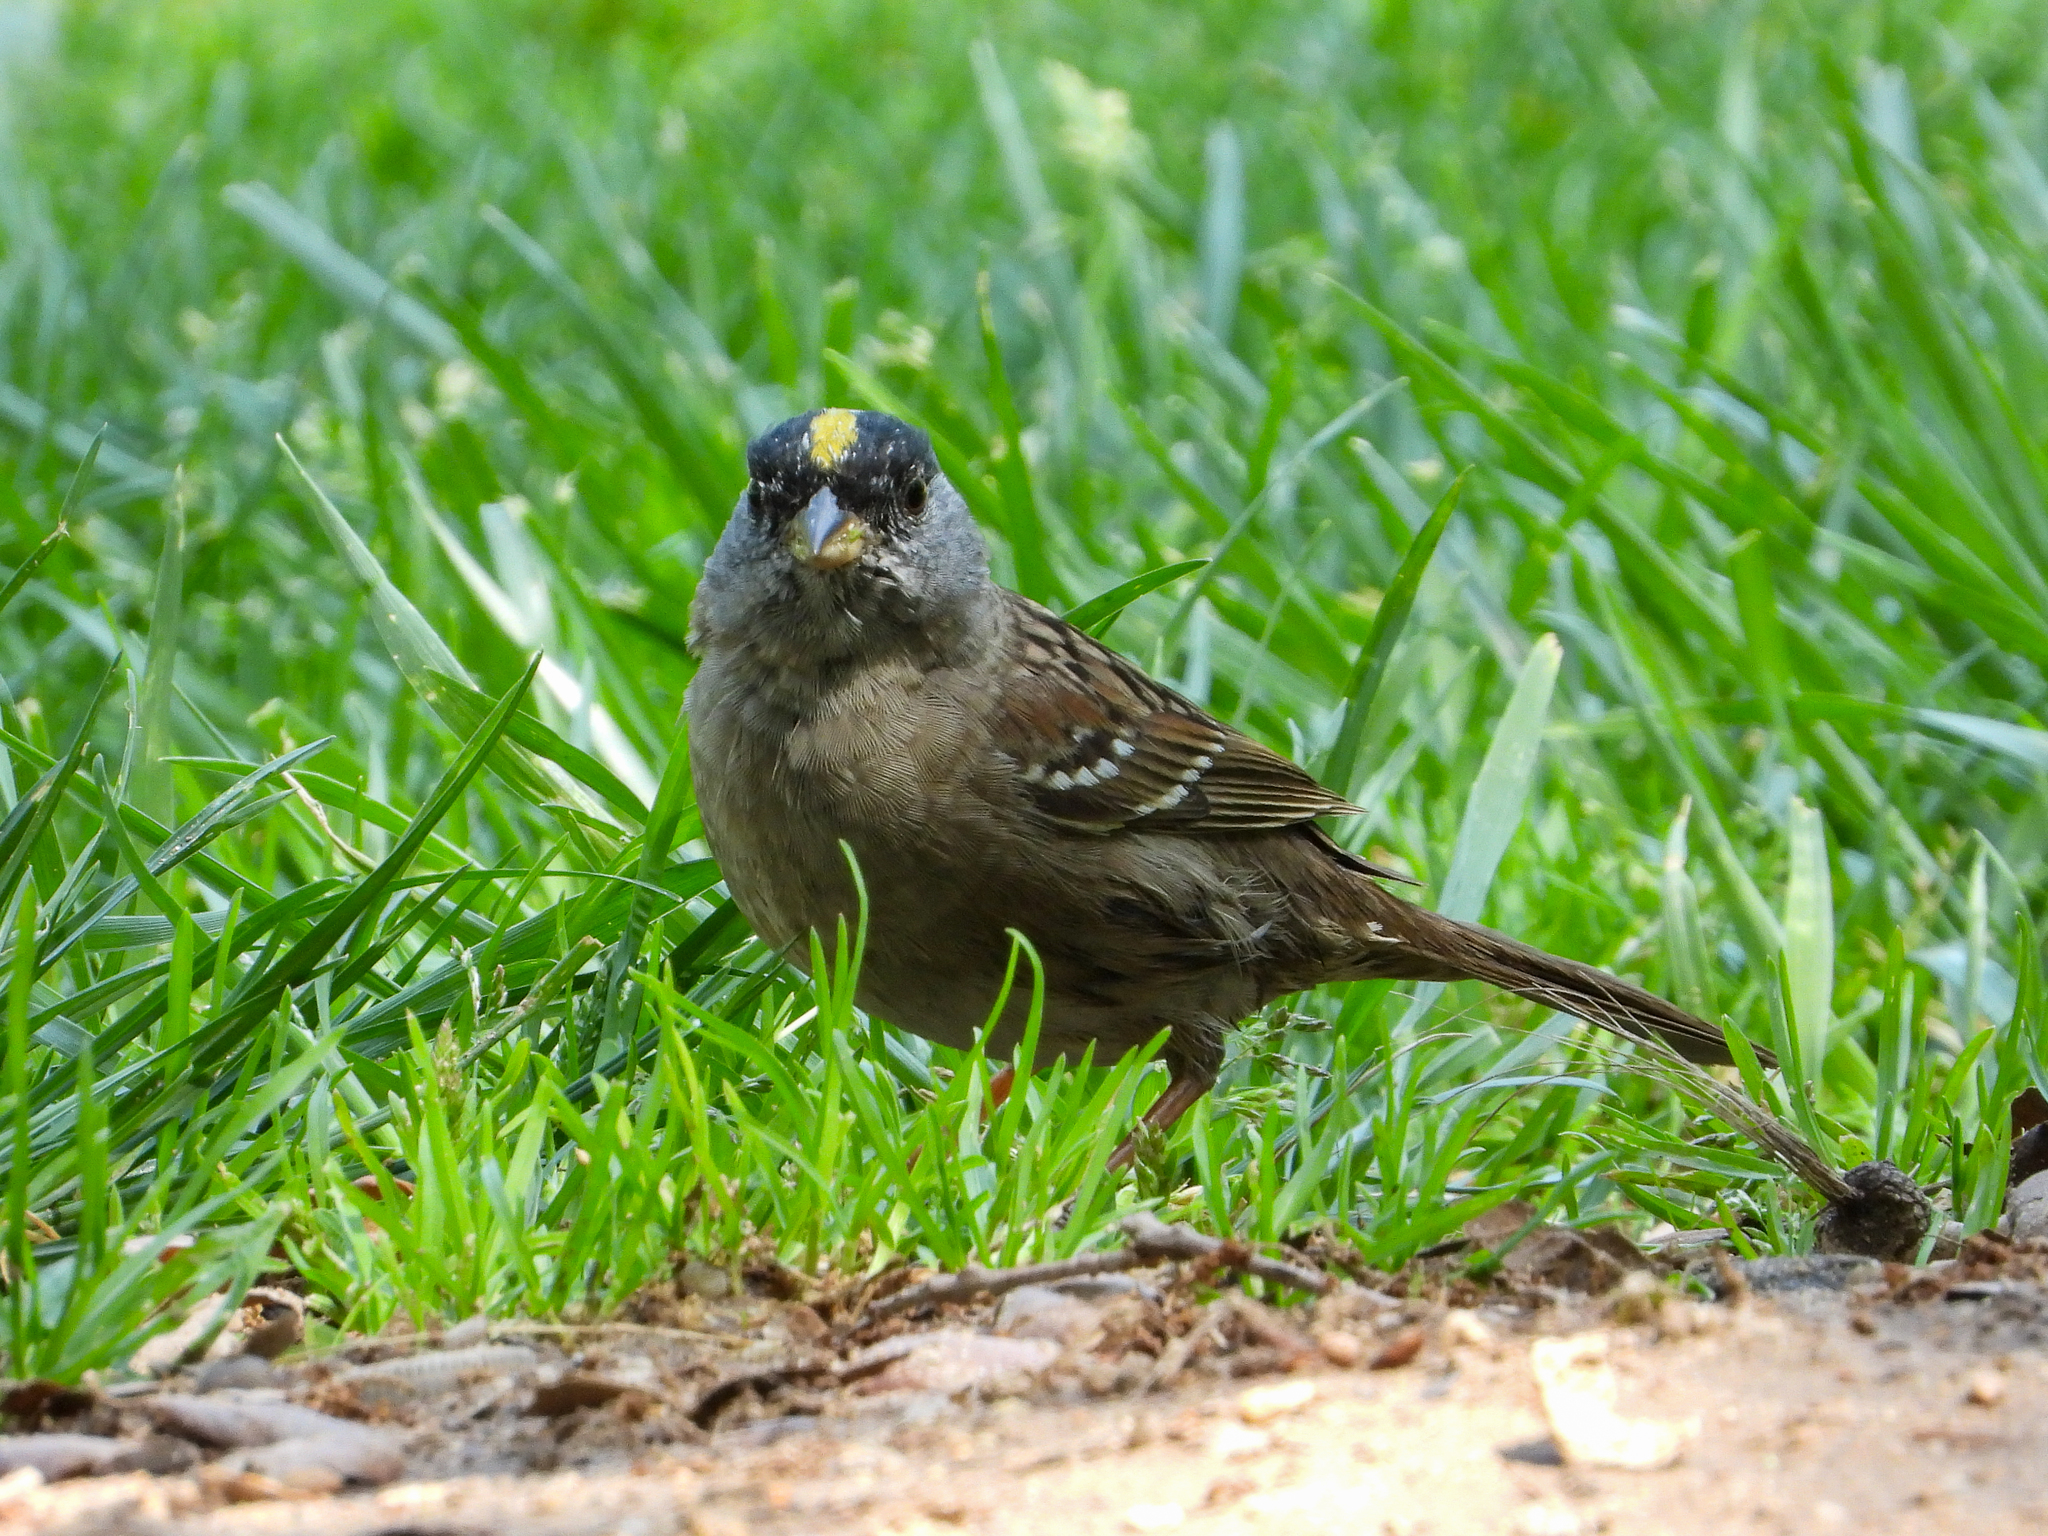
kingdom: Animalia
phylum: Chordata
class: Aves
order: Passeriformes
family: Passerellidae
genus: Zonotrichia
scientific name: Zonotrichia atricapilla
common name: Golden-crowned sparrow
